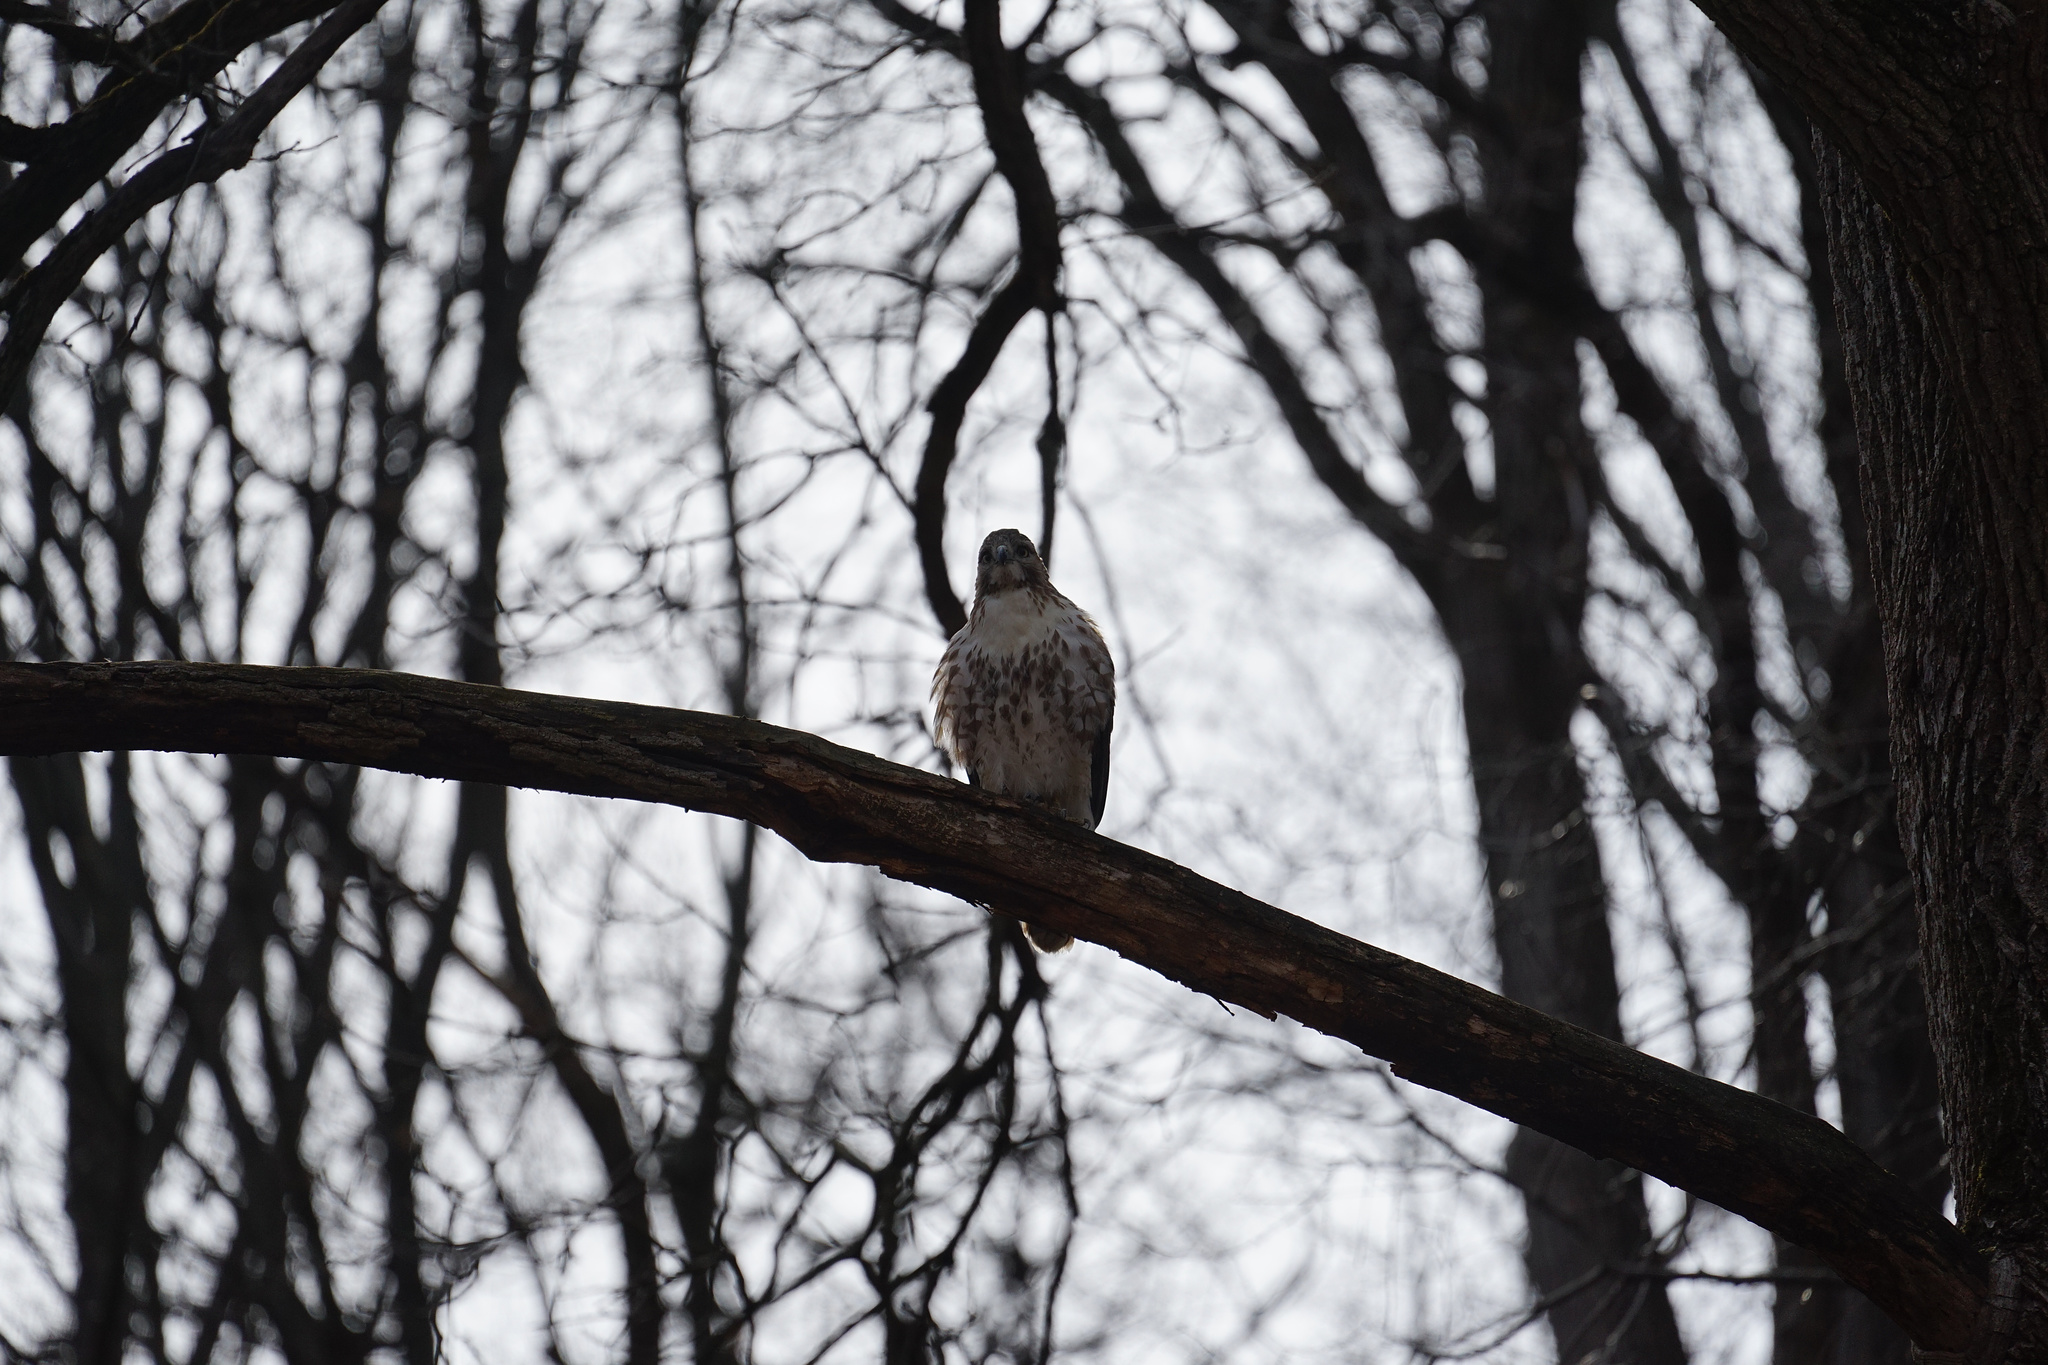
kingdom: Animalia
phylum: Chordata
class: Aves
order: Accipitriformes
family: Accipitridae
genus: Buteo
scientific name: Buteo jamaicensis
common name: Red-tailed hawk
